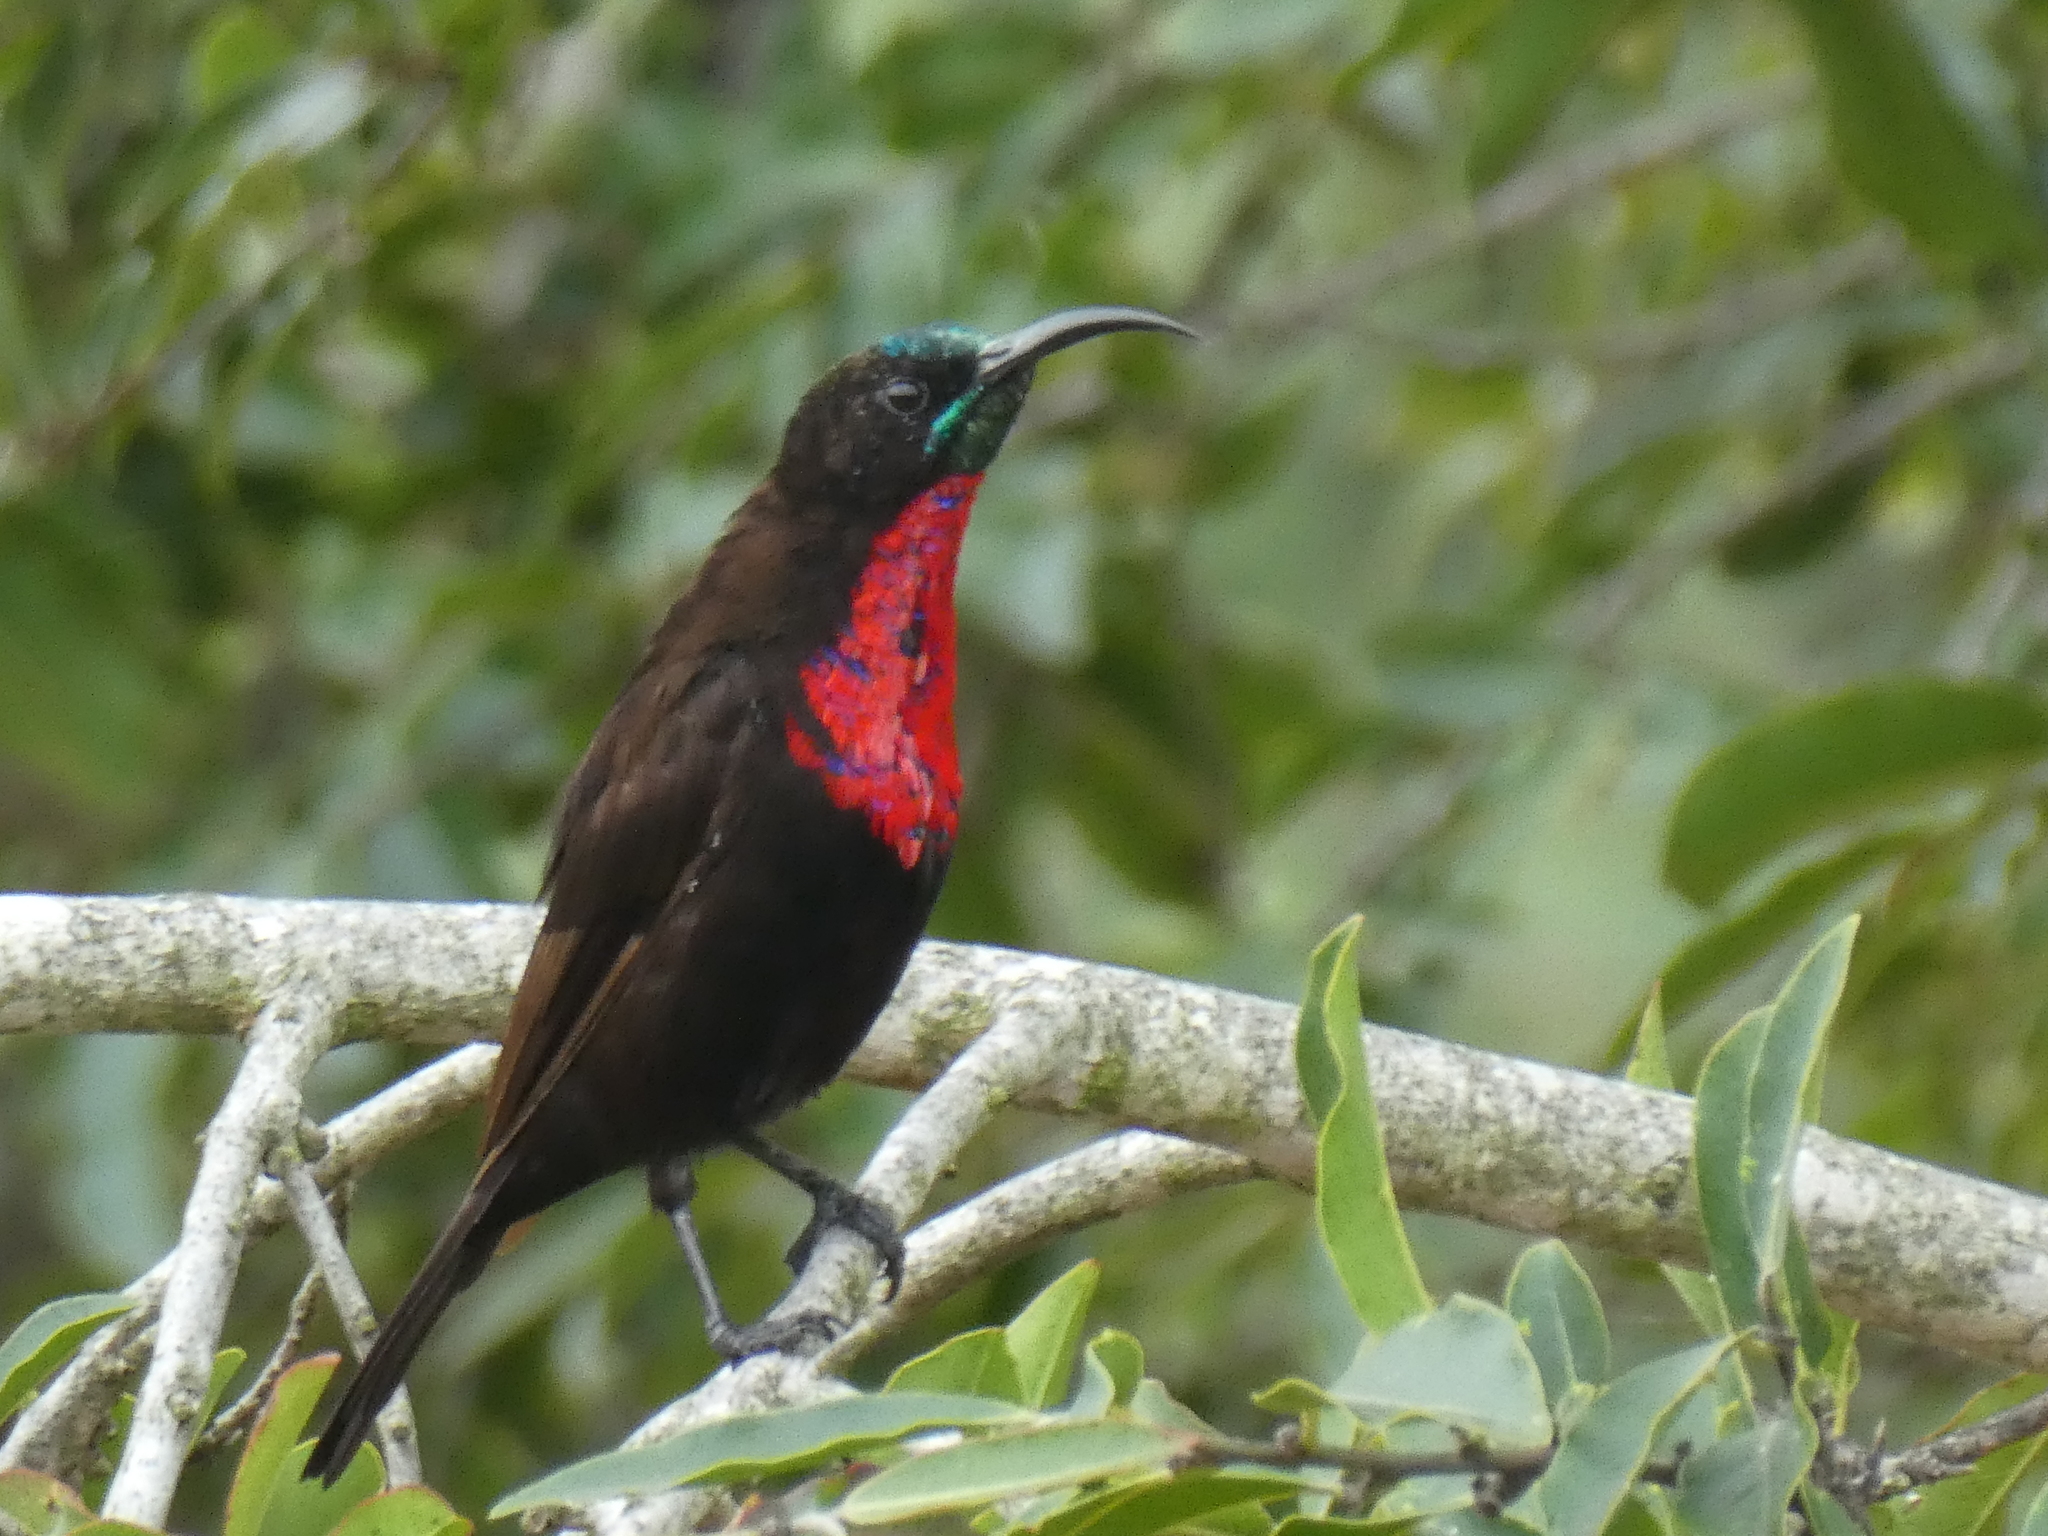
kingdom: Animalia
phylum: Chordata
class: Aves
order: Passeriformes
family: Nectariniidae
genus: Chalcomitra
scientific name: Chalcomitra senegalensis
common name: Scarlet-chested sunbird
